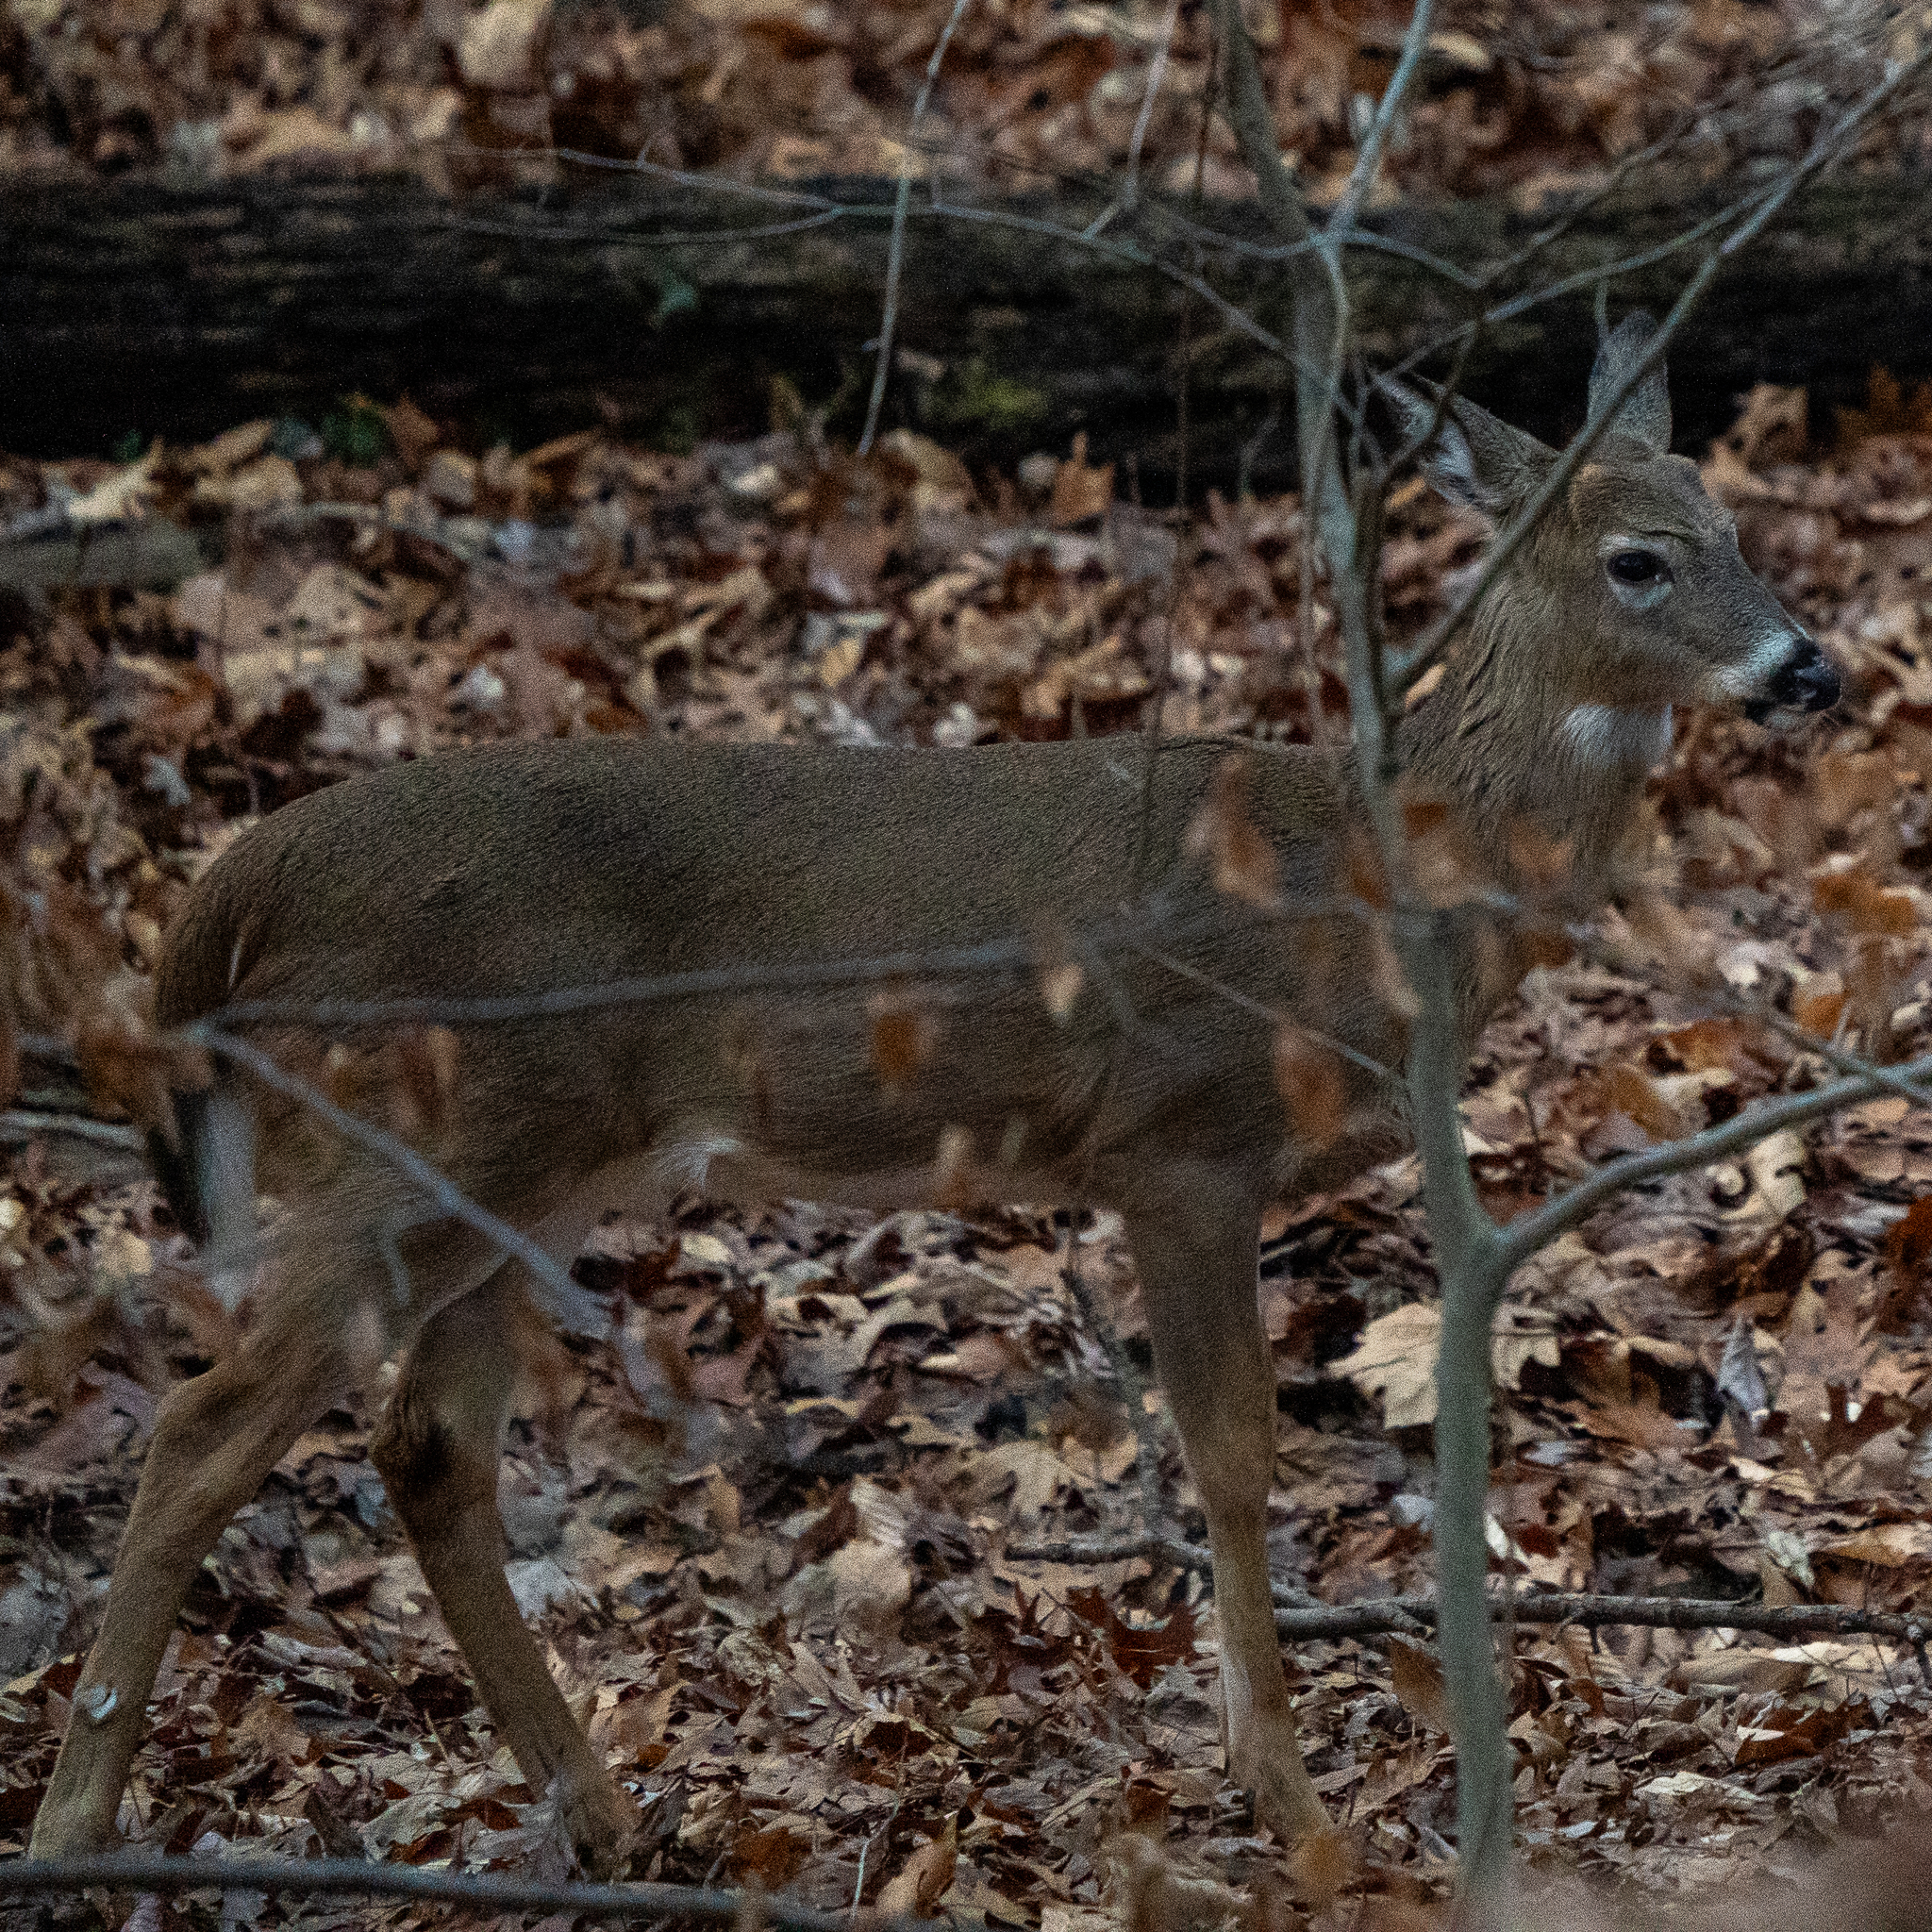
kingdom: Animalia
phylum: Chordata
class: Mammalia
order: Artiodactyla
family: Cervidae
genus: Odocoileus
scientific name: Odocoileus virginianus
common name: White-tailed deer
